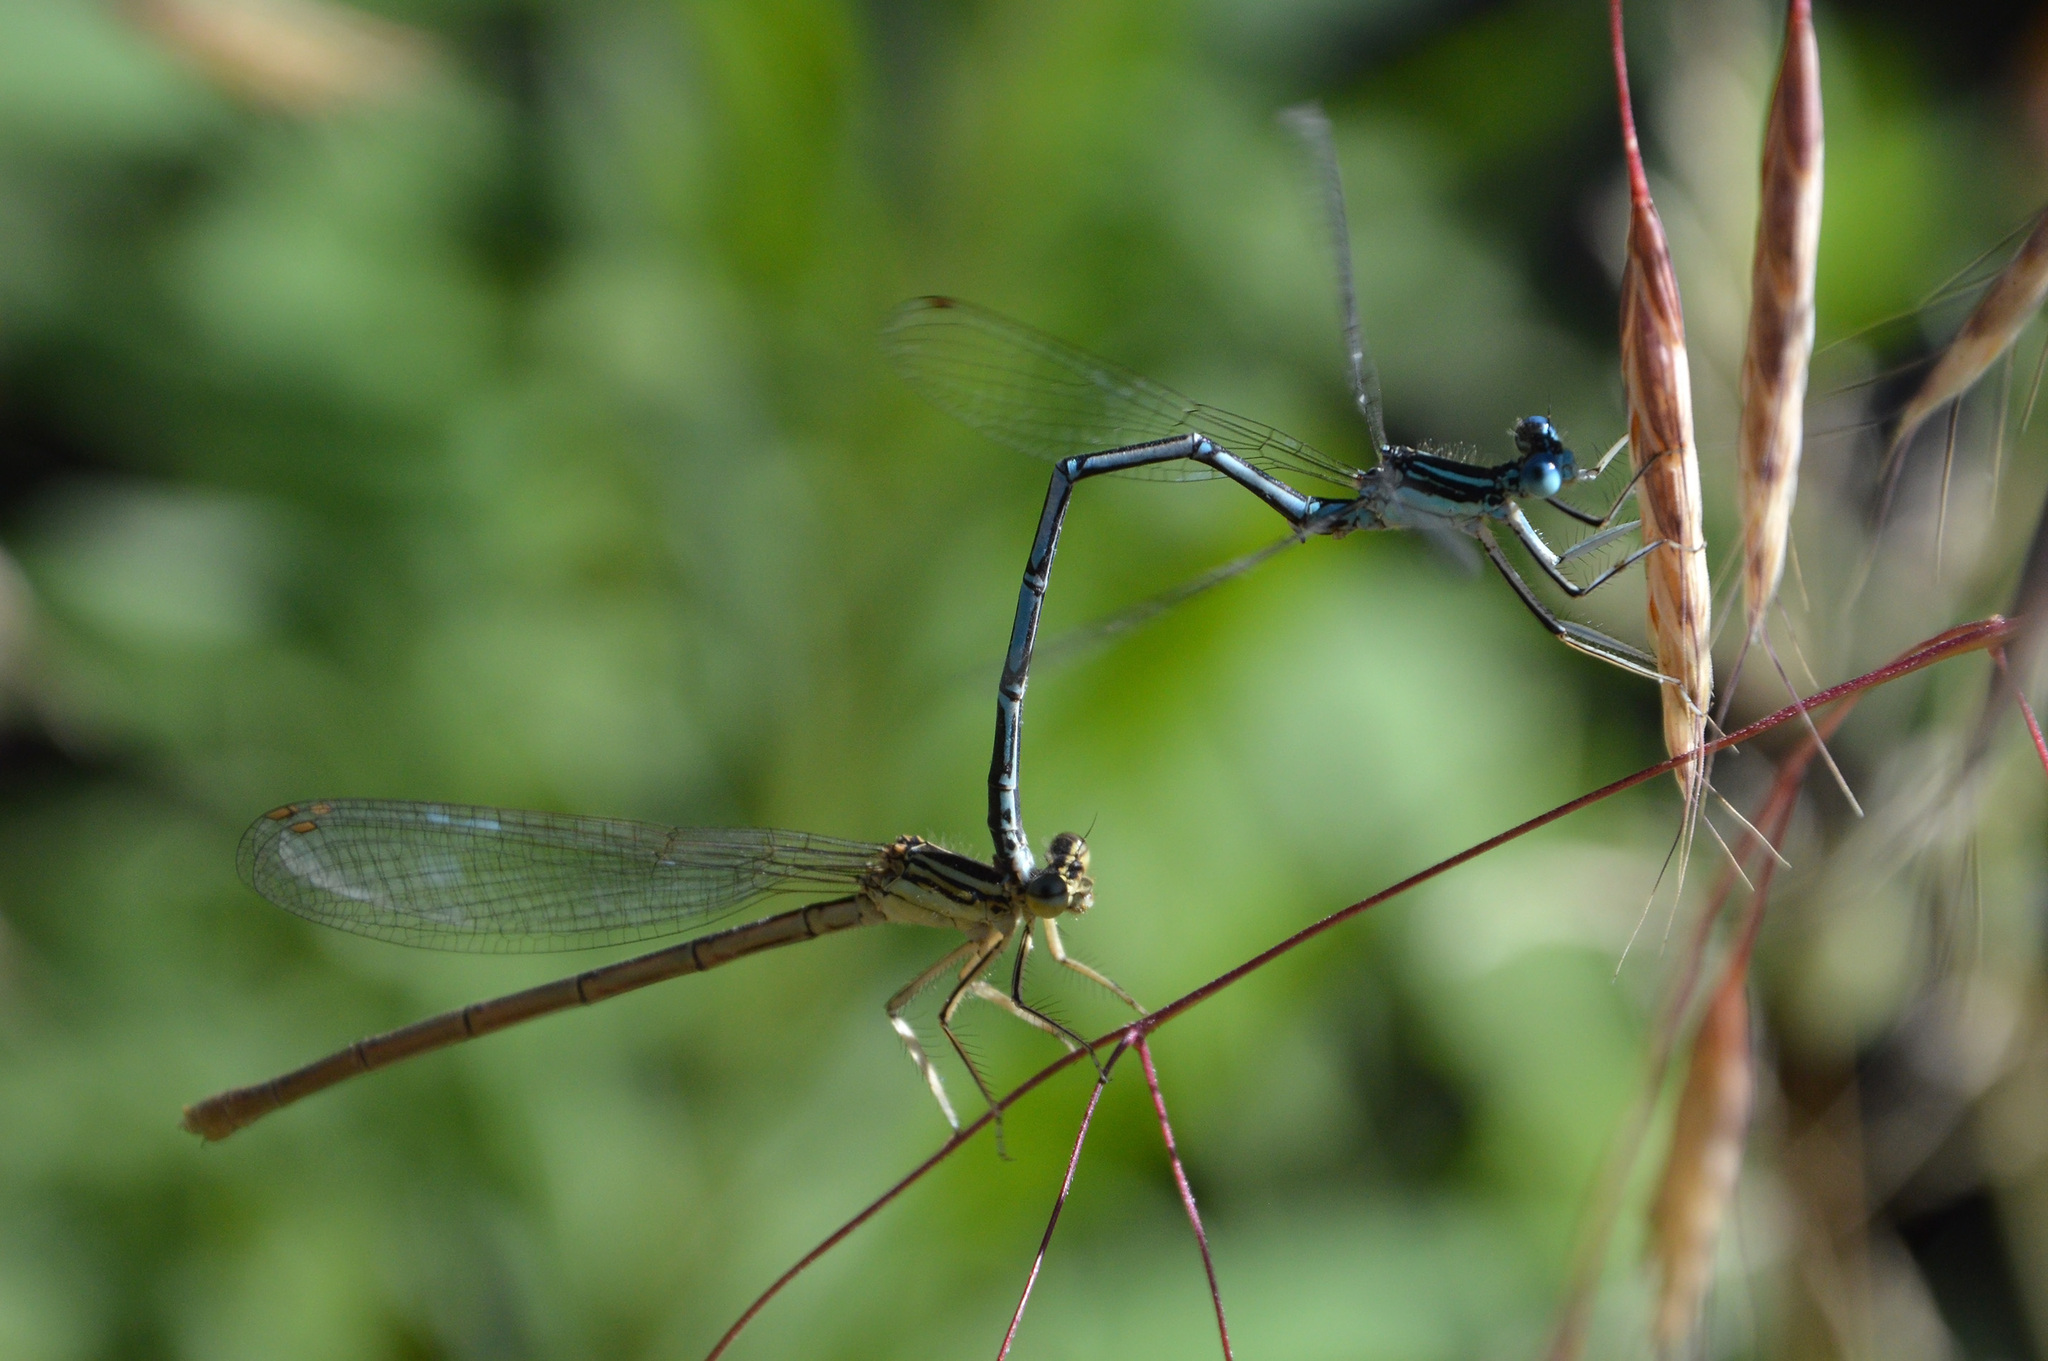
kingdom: Animalia
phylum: Arthropoda
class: Insecta
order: Odonata
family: Platycnemididae
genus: Platycnemis
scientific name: Platycnemis pennipes
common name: White-legged damselfly
